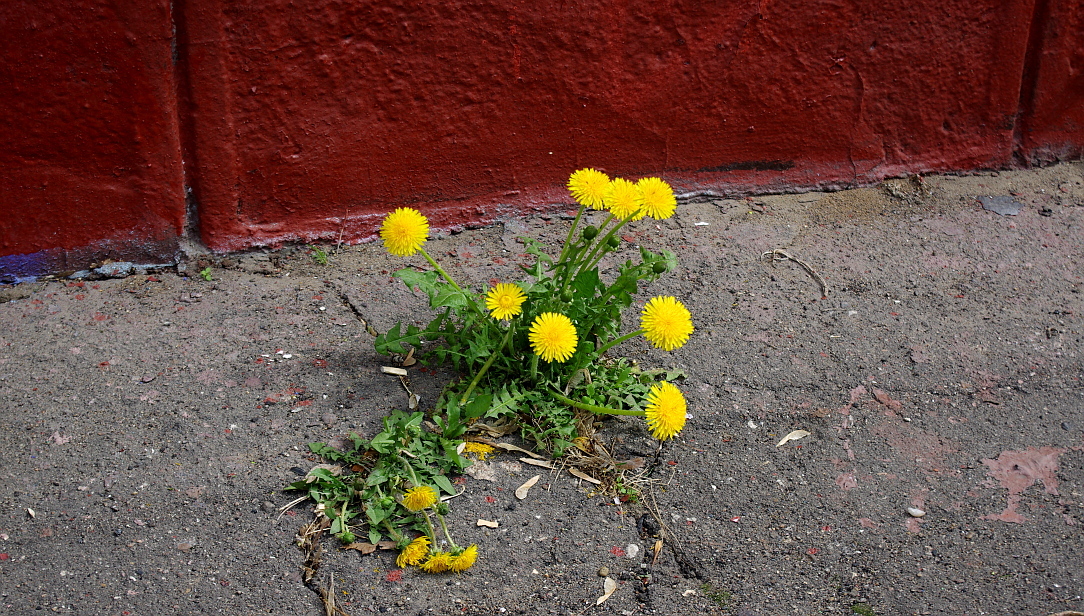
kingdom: Plantae
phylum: Tracheophyta
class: Magnoliopsida
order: Asterales
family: Asteraceae
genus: Taraxacum
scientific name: Taraxacum officinale
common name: Common dandelion
